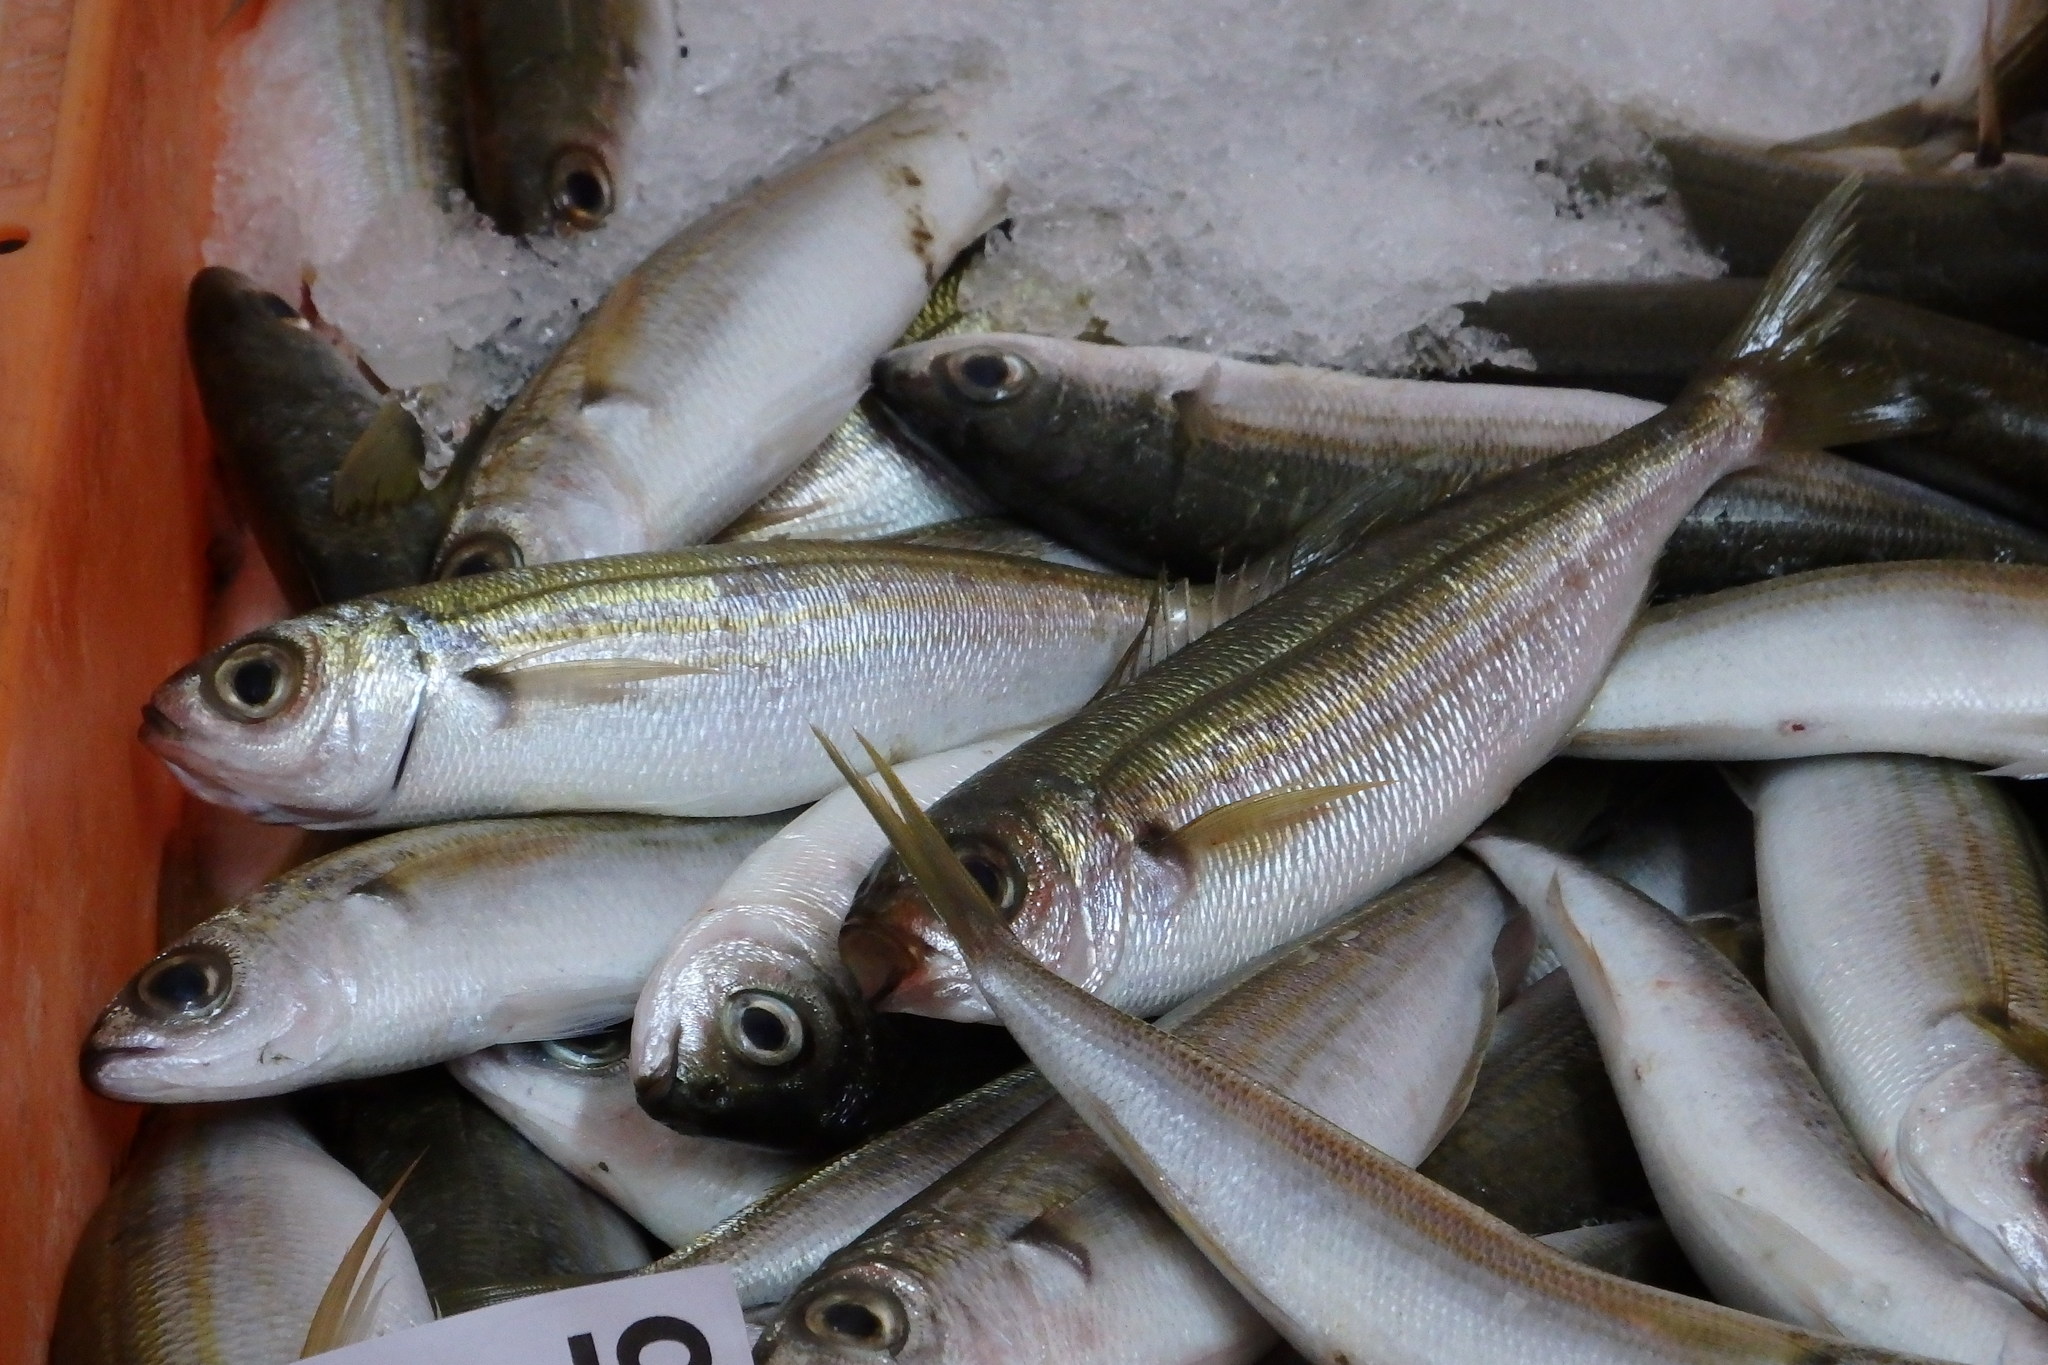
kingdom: Animalia
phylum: Chordata
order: Perciformes
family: Sparidae
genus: Boops
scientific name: Boops boops
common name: Bogue
